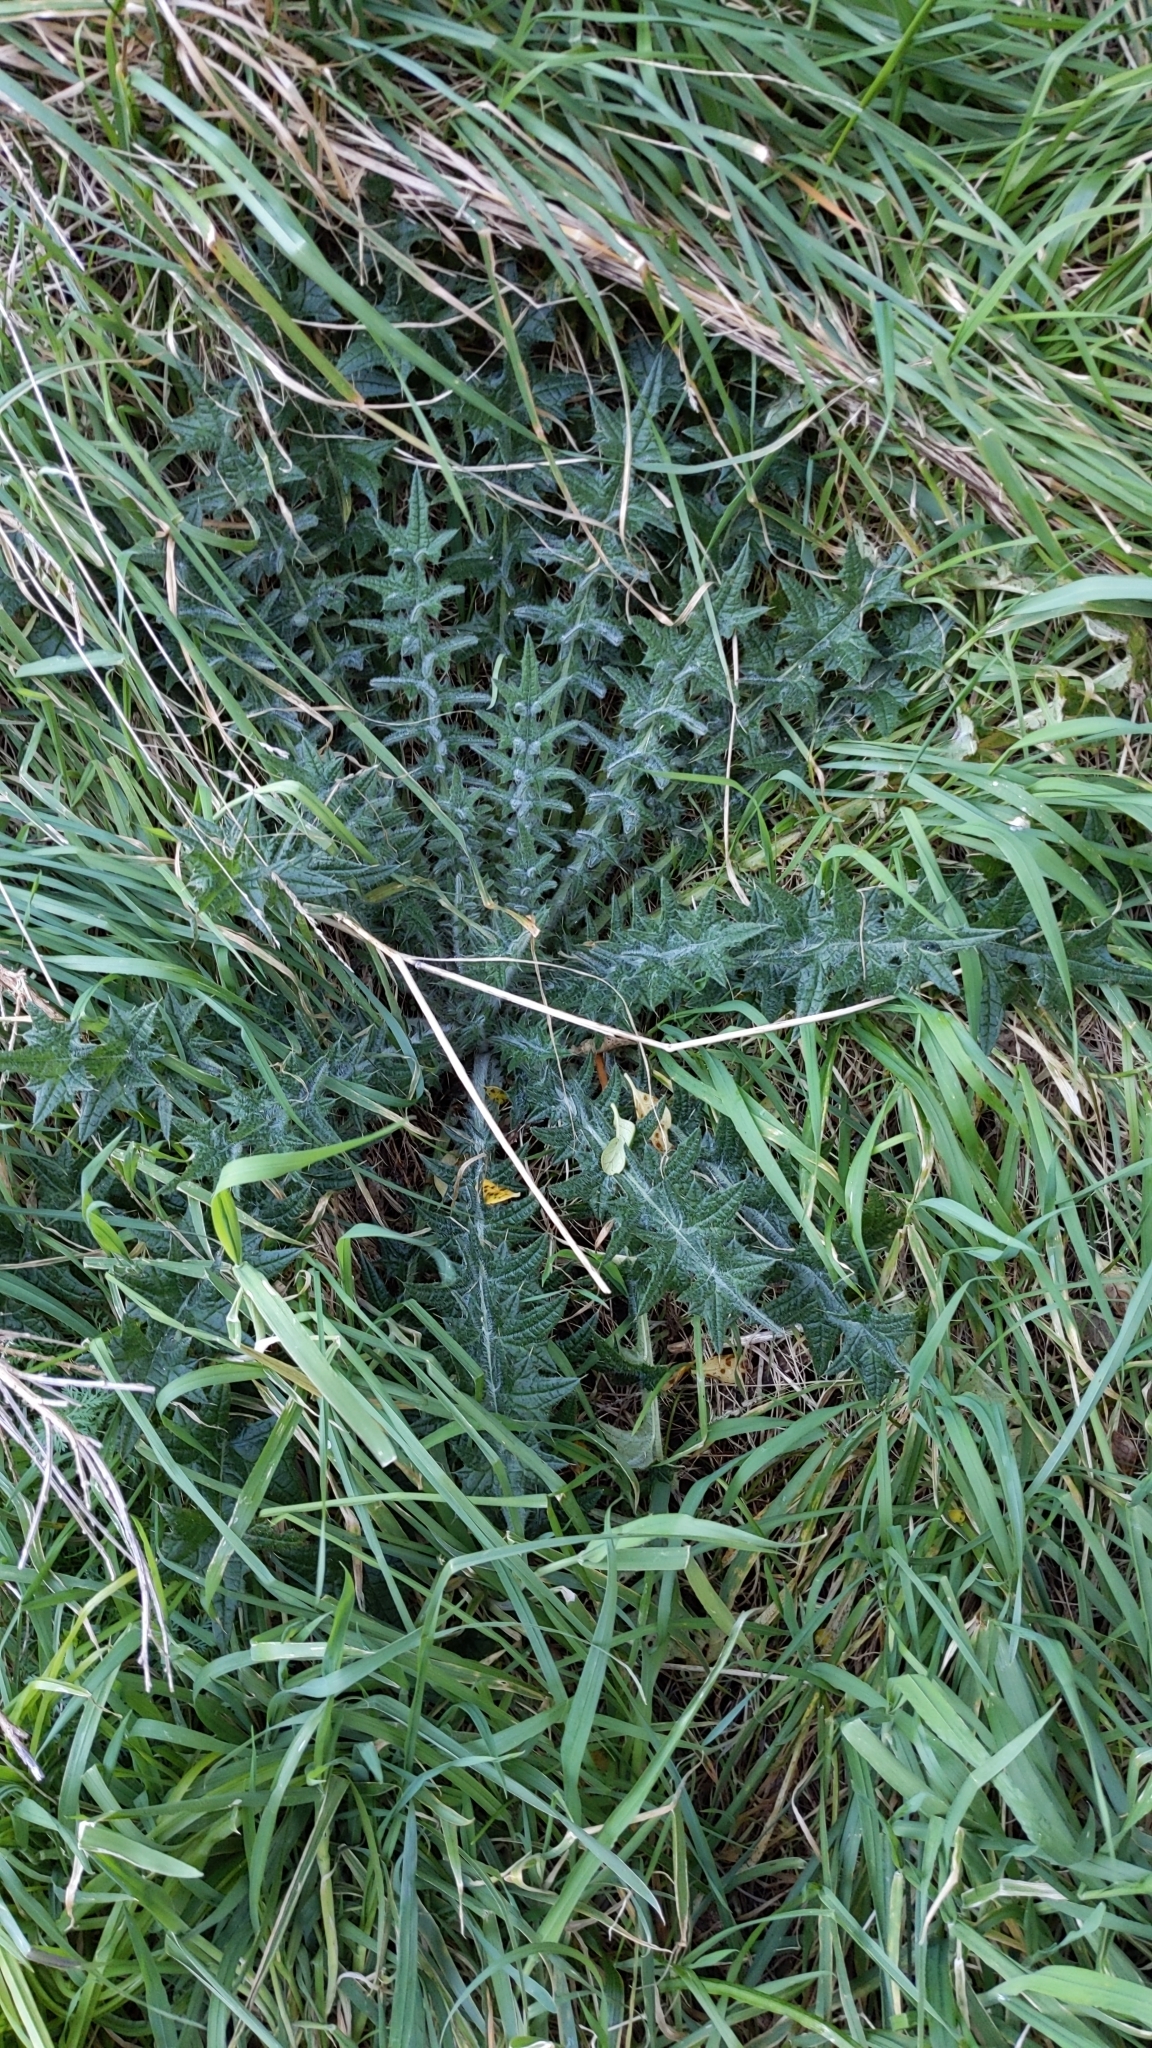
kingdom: Plantae
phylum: Tracheophyta
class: Magnoliopsida
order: Asterales
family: Asteraceae
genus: Cirsium
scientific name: Cirsium vulgare
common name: Bull thistle
